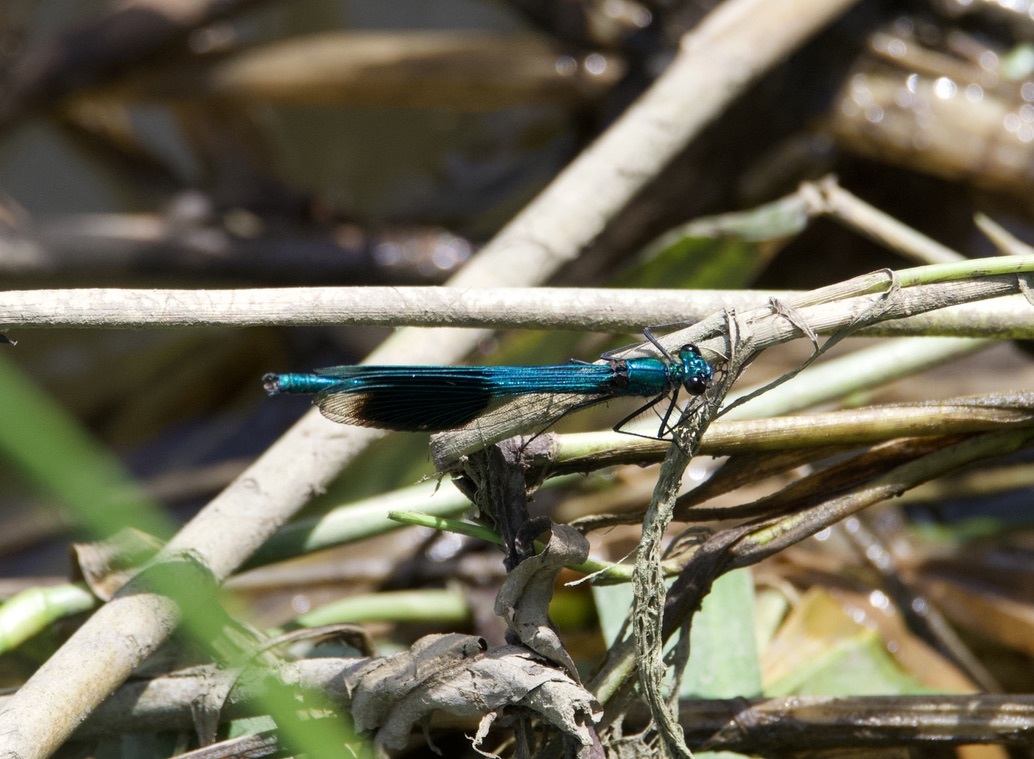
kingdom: Animalia
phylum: Arthropoda
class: Insecta
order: Odonata
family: Calopterygidae
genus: Calopteryx
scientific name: Calopteryx splendens
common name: Banded demoiselle
